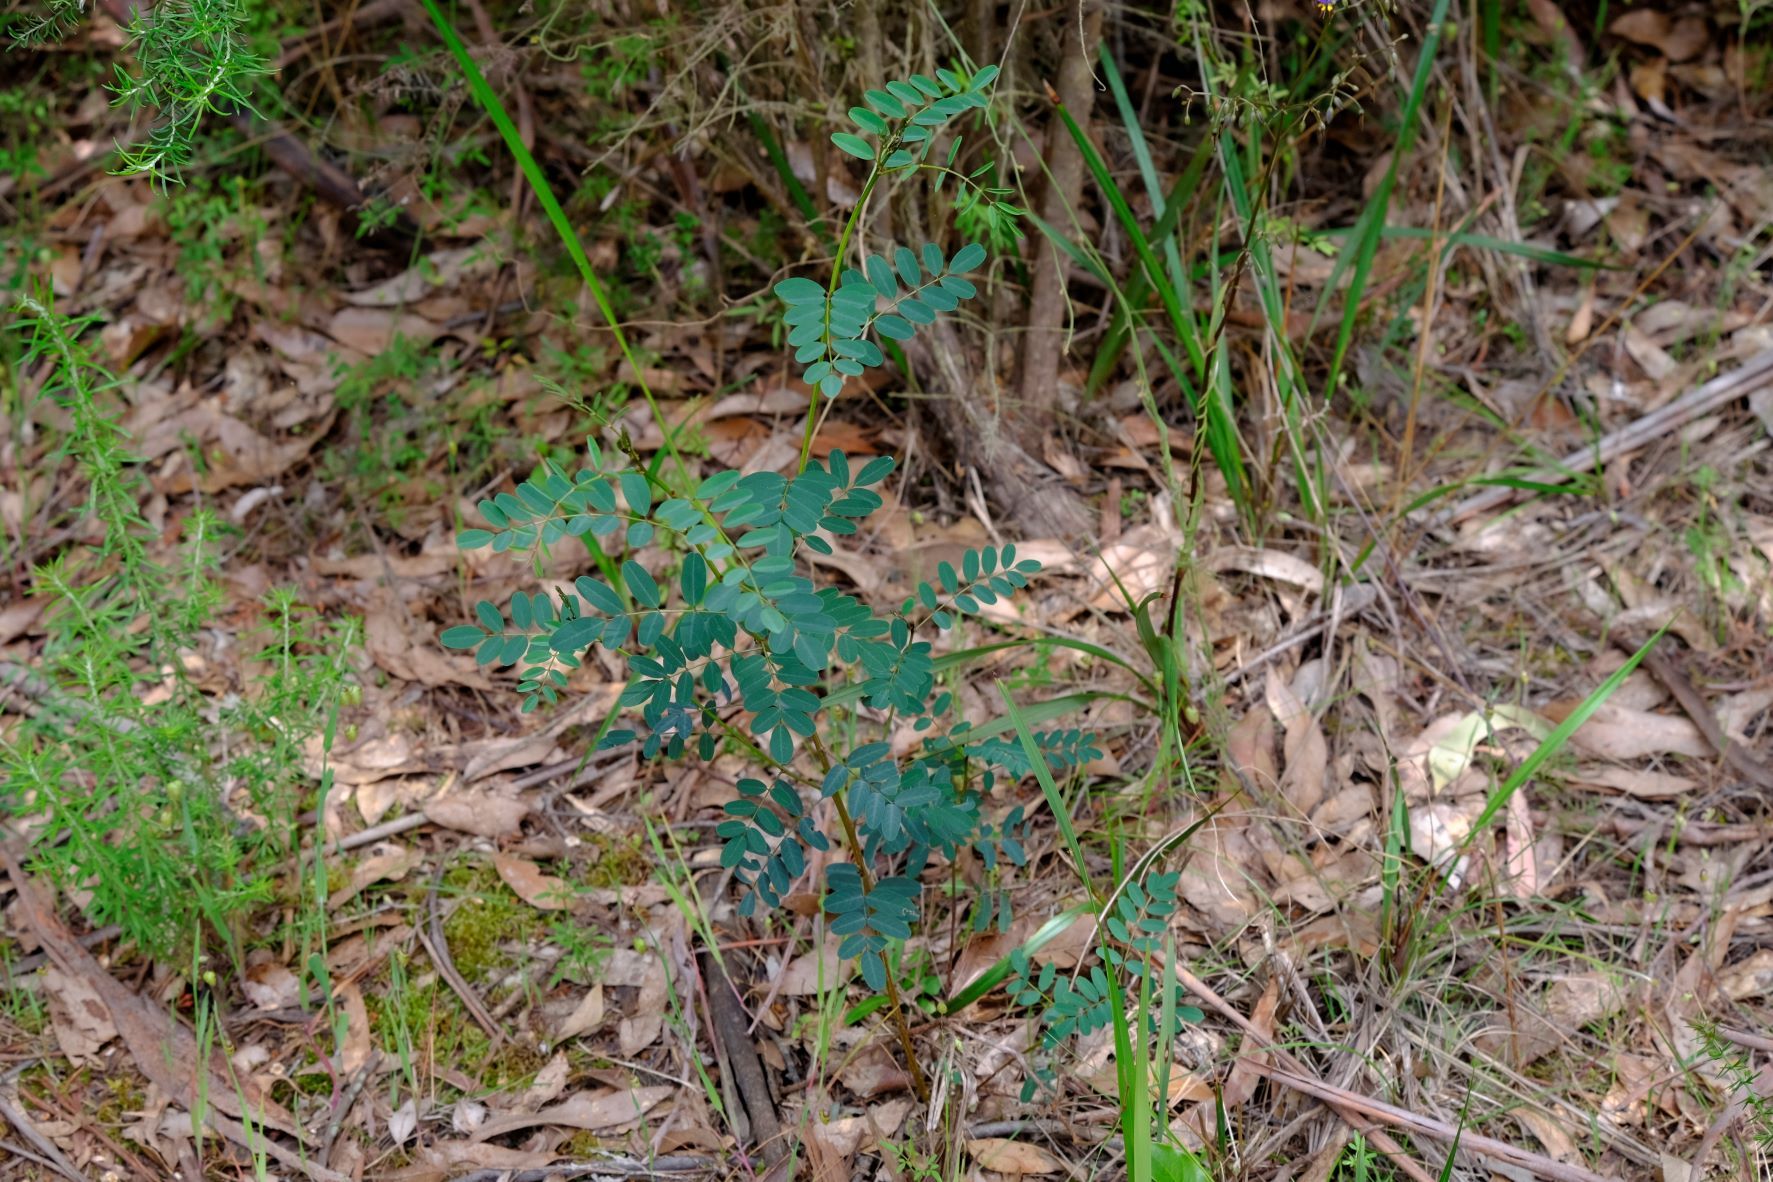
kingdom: Plantae
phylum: Tracheophyta
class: Magnoliopsida
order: Fabales
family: Fabaceae
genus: Indigofera
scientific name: Indigofera australis
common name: Australian indigo
